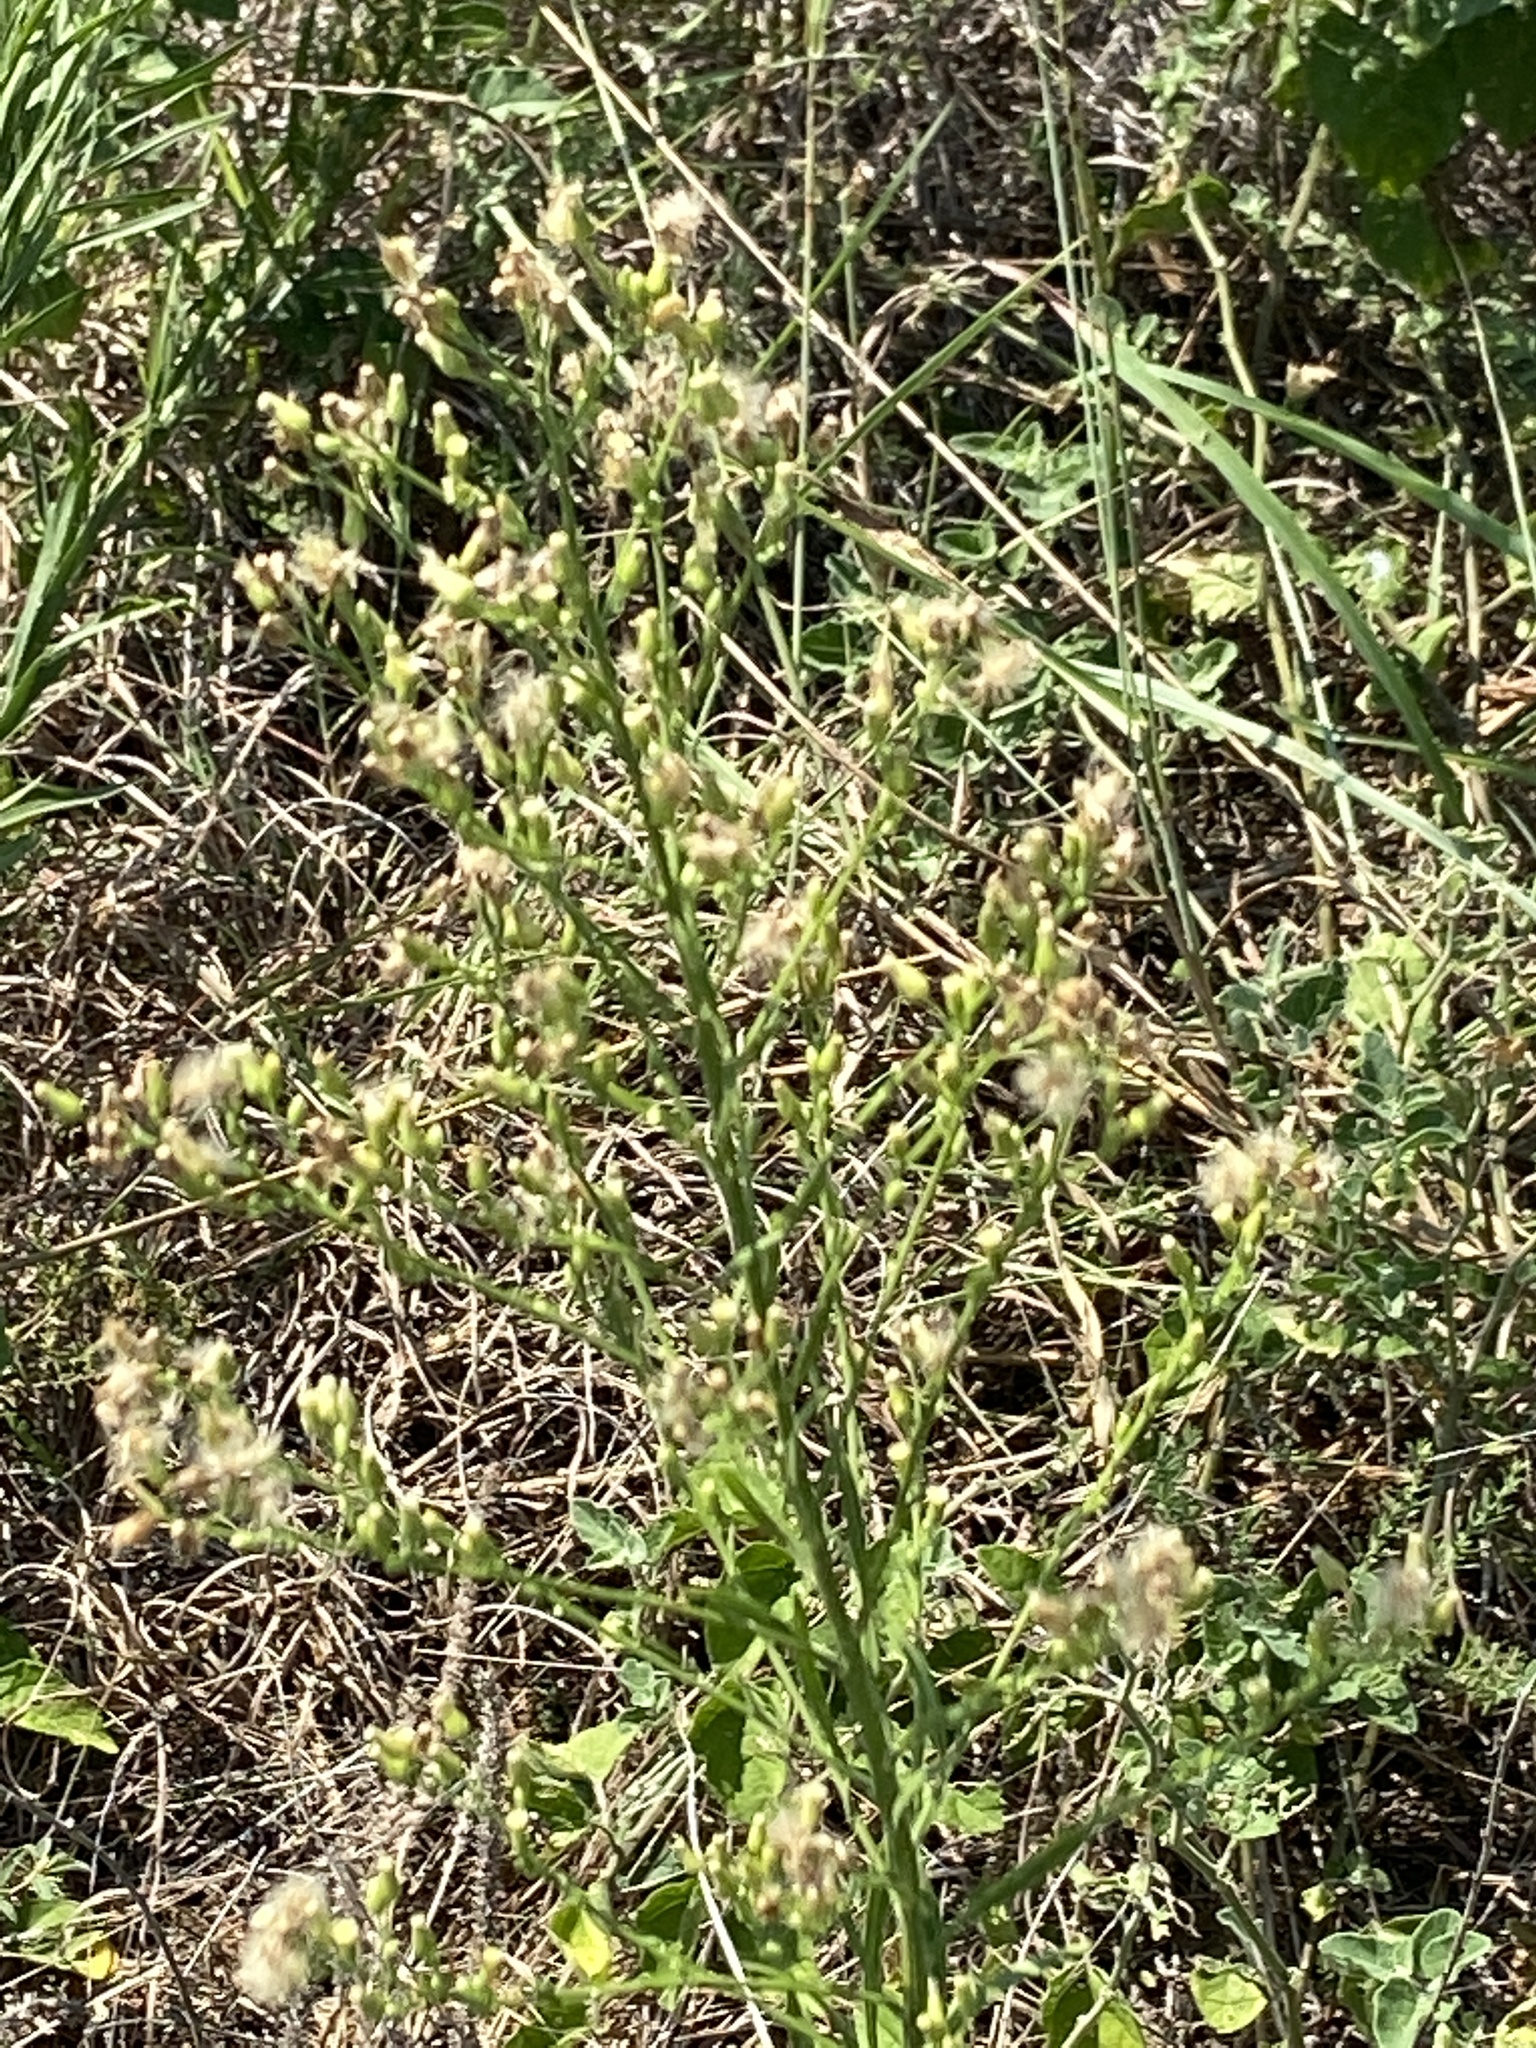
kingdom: Plantae
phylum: Tracheophyta
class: Magnoliopsida
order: Asterales
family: Asteraceae
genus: Erigeron
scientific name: Erigeron canadensis
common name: Canadian fleabane
